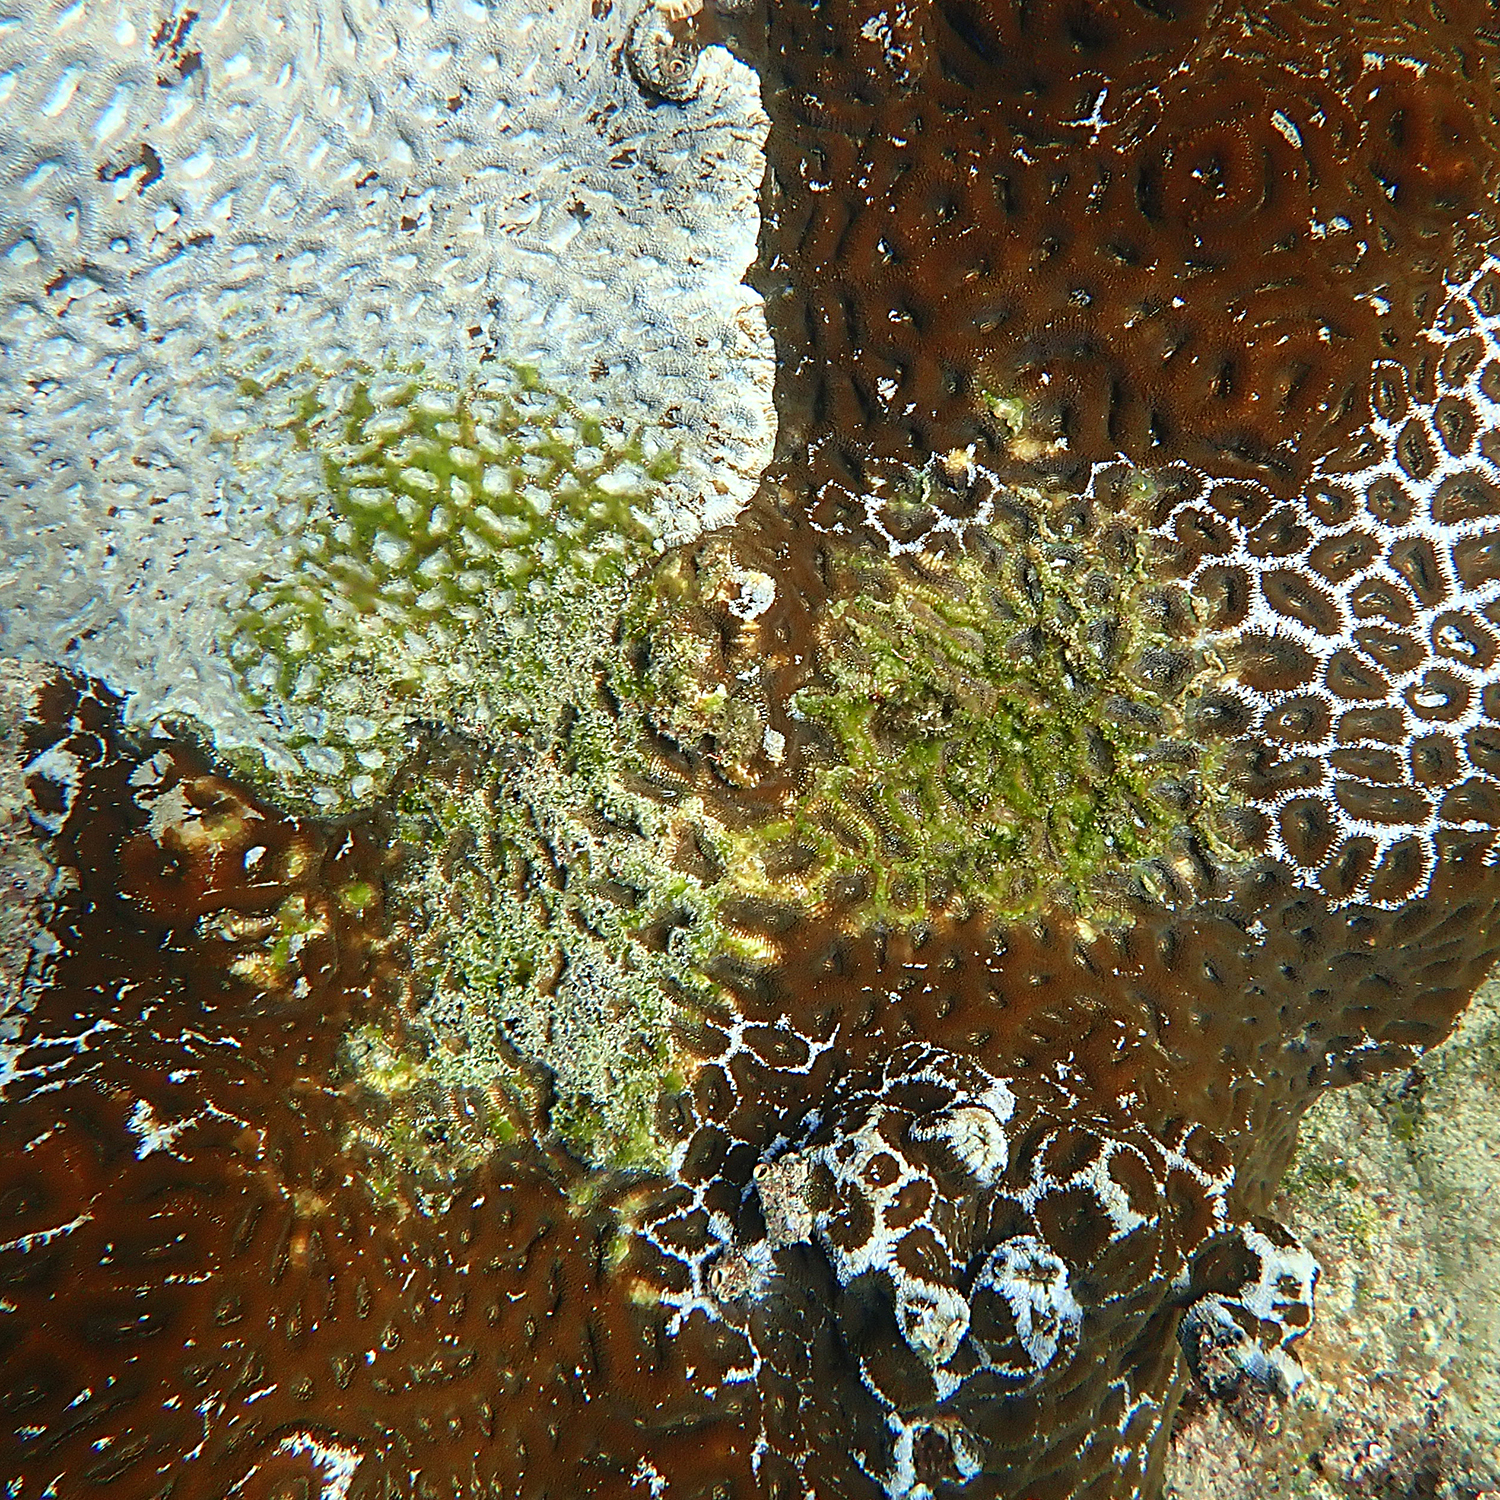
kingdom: Animalia
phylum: Chordata
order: Perciformes
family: Pomacentridae
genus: Parma
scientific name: Parma polylepis
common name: Banded parma
